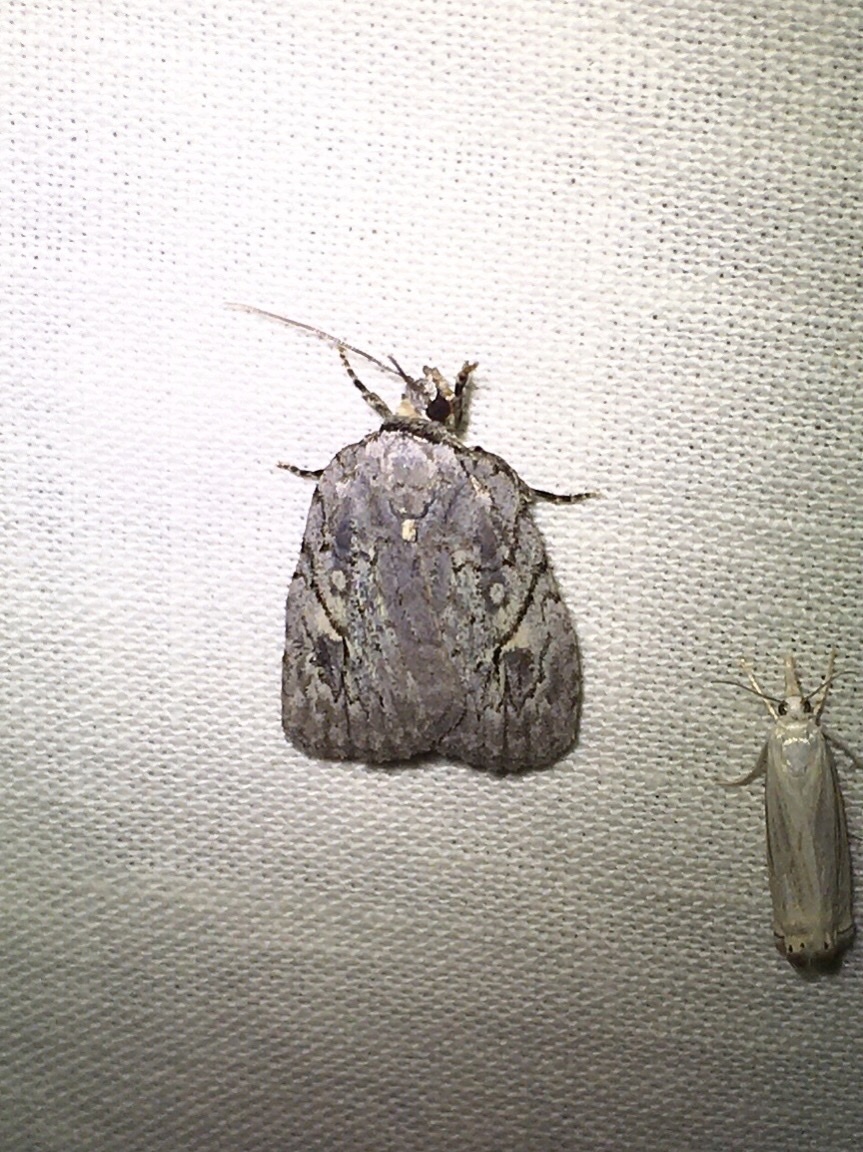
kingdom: Animalia
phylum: Arthropoda
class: Insecta
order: Lepidoptera
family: Noctuidae
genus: Balsa
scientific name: Balsa labecula
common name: White-blotched balsa moth
